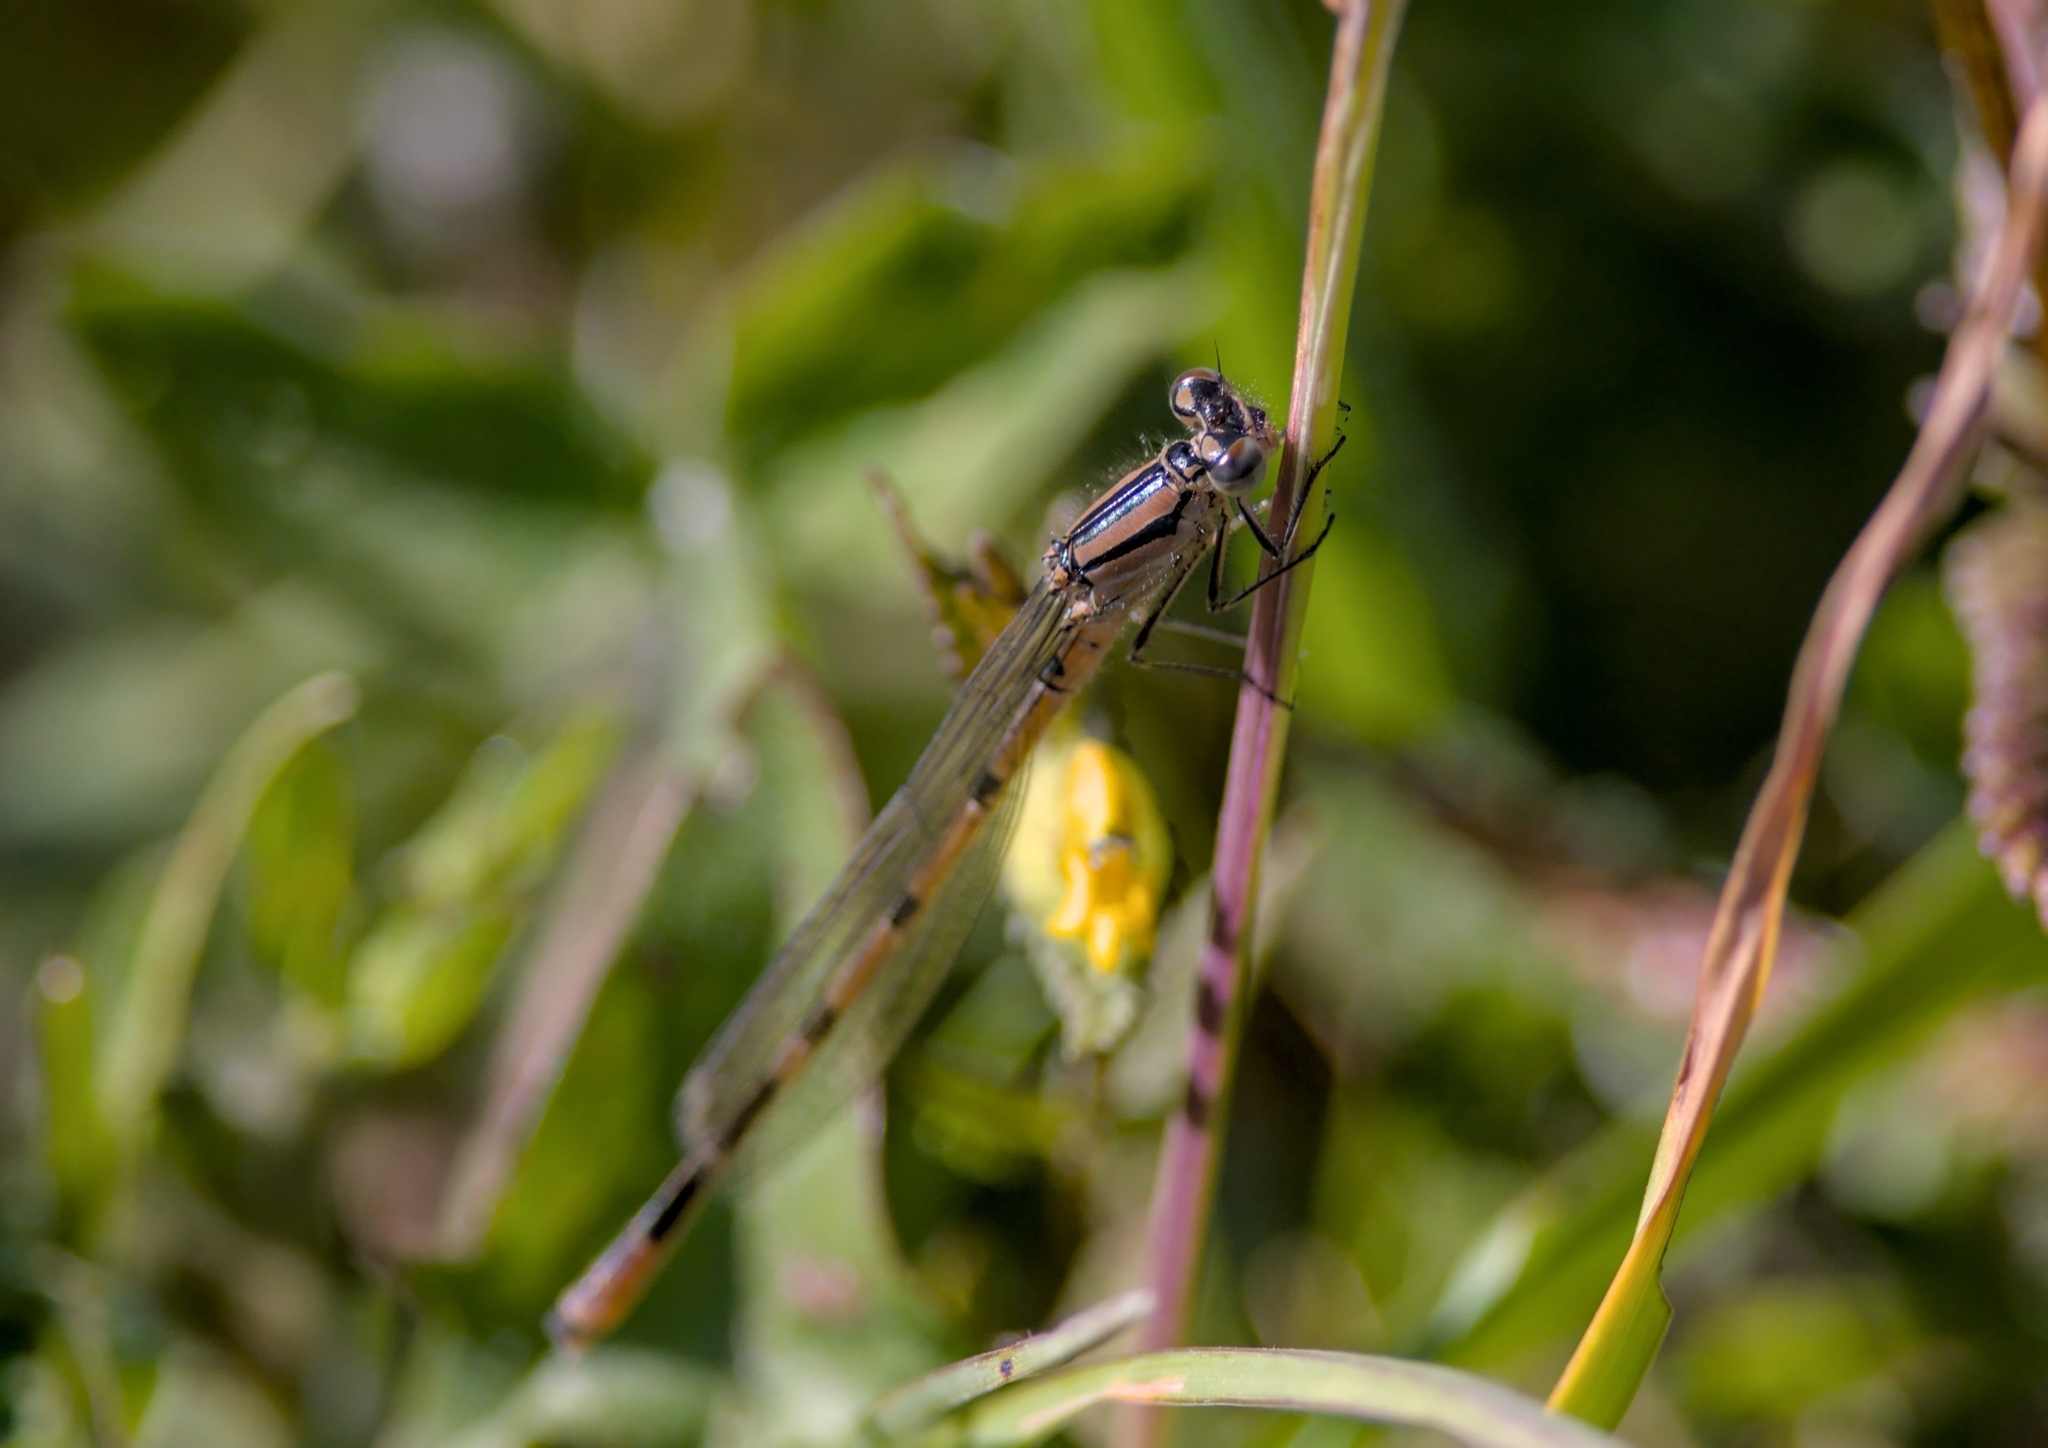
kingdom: Animalia
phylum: Arthropoda
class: Insecta
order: Odonata
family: Coenagrionidae
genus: Enallagma
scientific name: Enallagma cyathigerum
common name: Common blue damselfly
